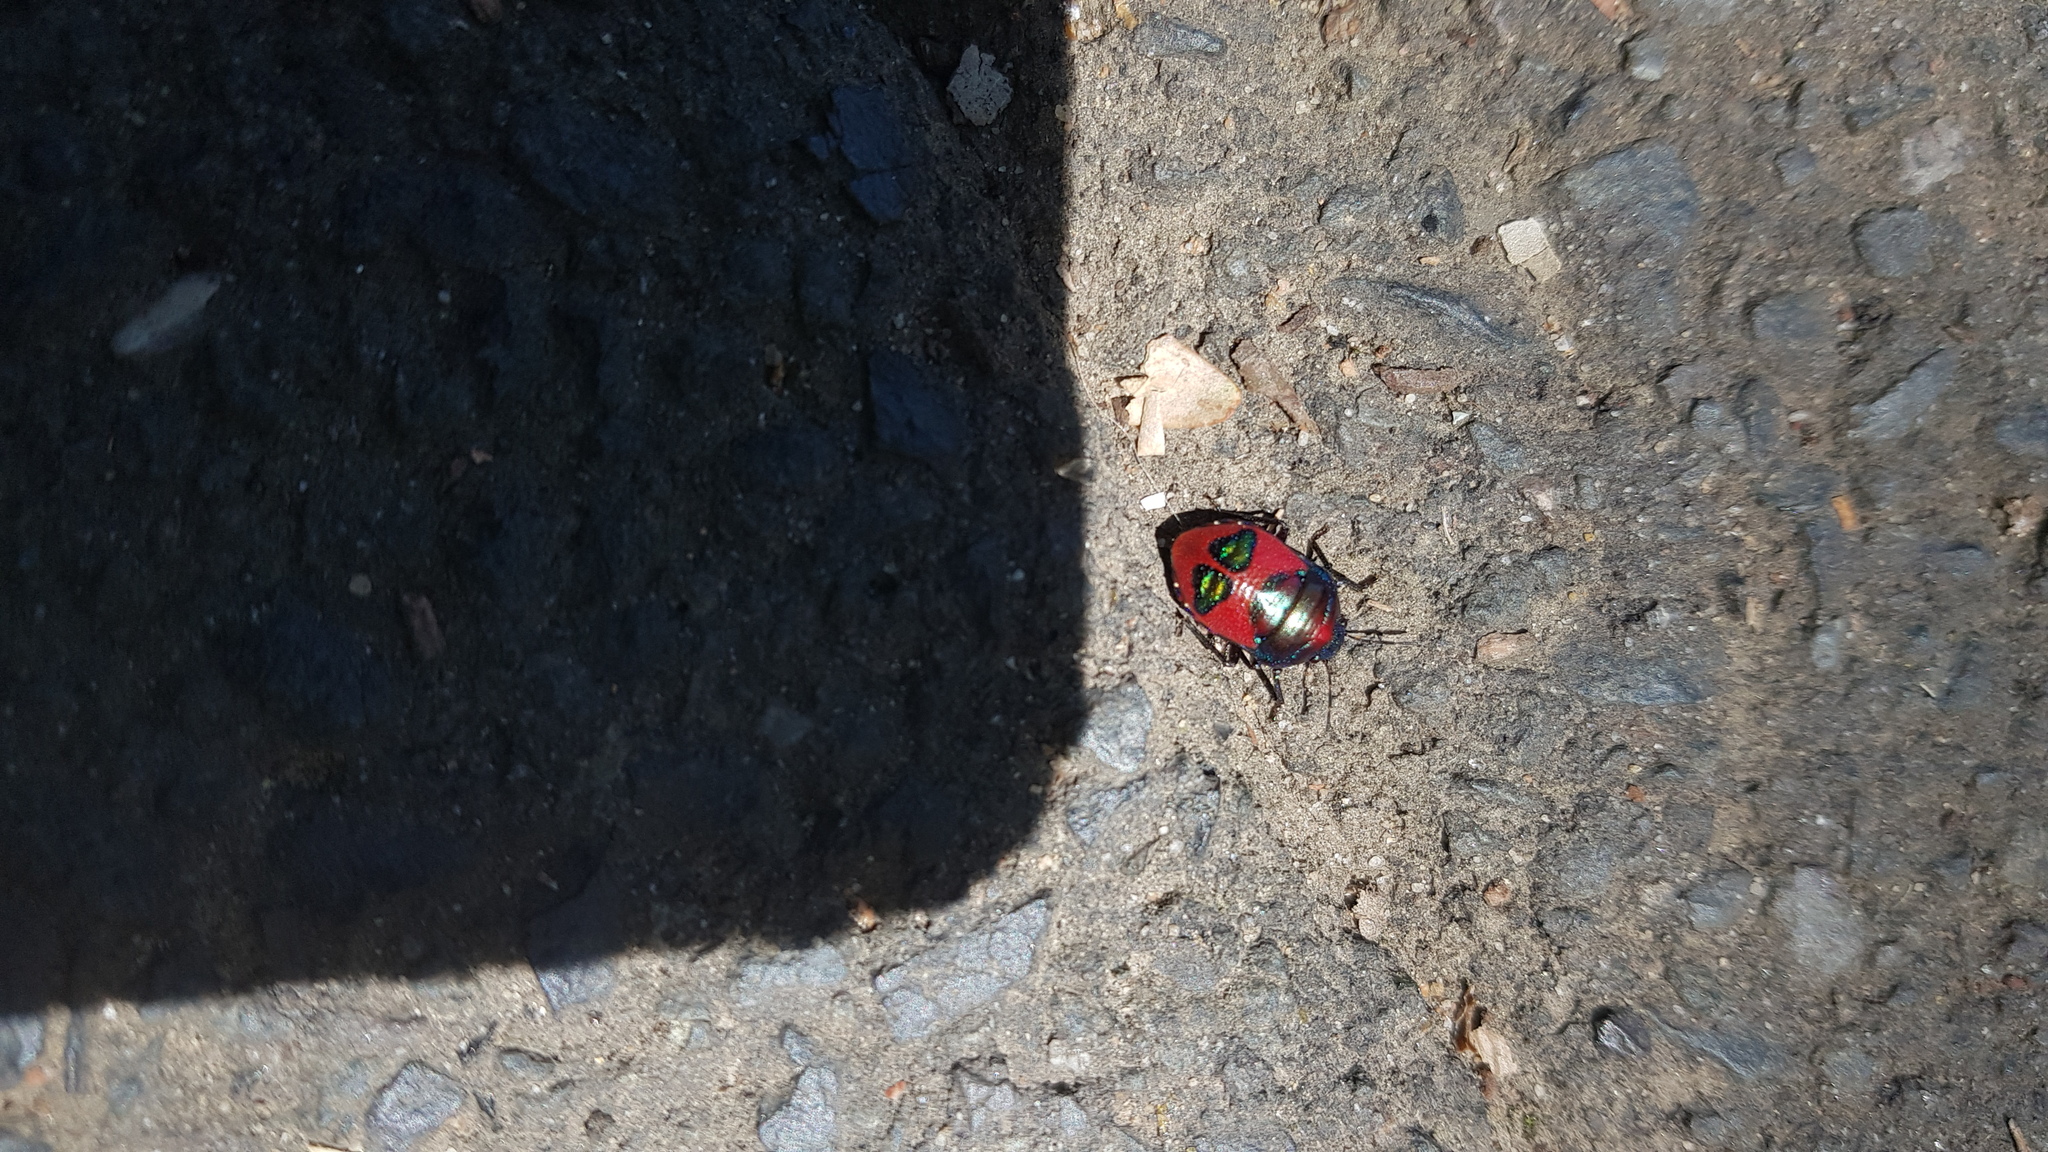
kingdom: Animalia
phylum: Arthropoda
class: Insecta
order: Hemiptera
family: Scutelleridae
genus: Choerocoris
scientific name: Choerocoris paganus
